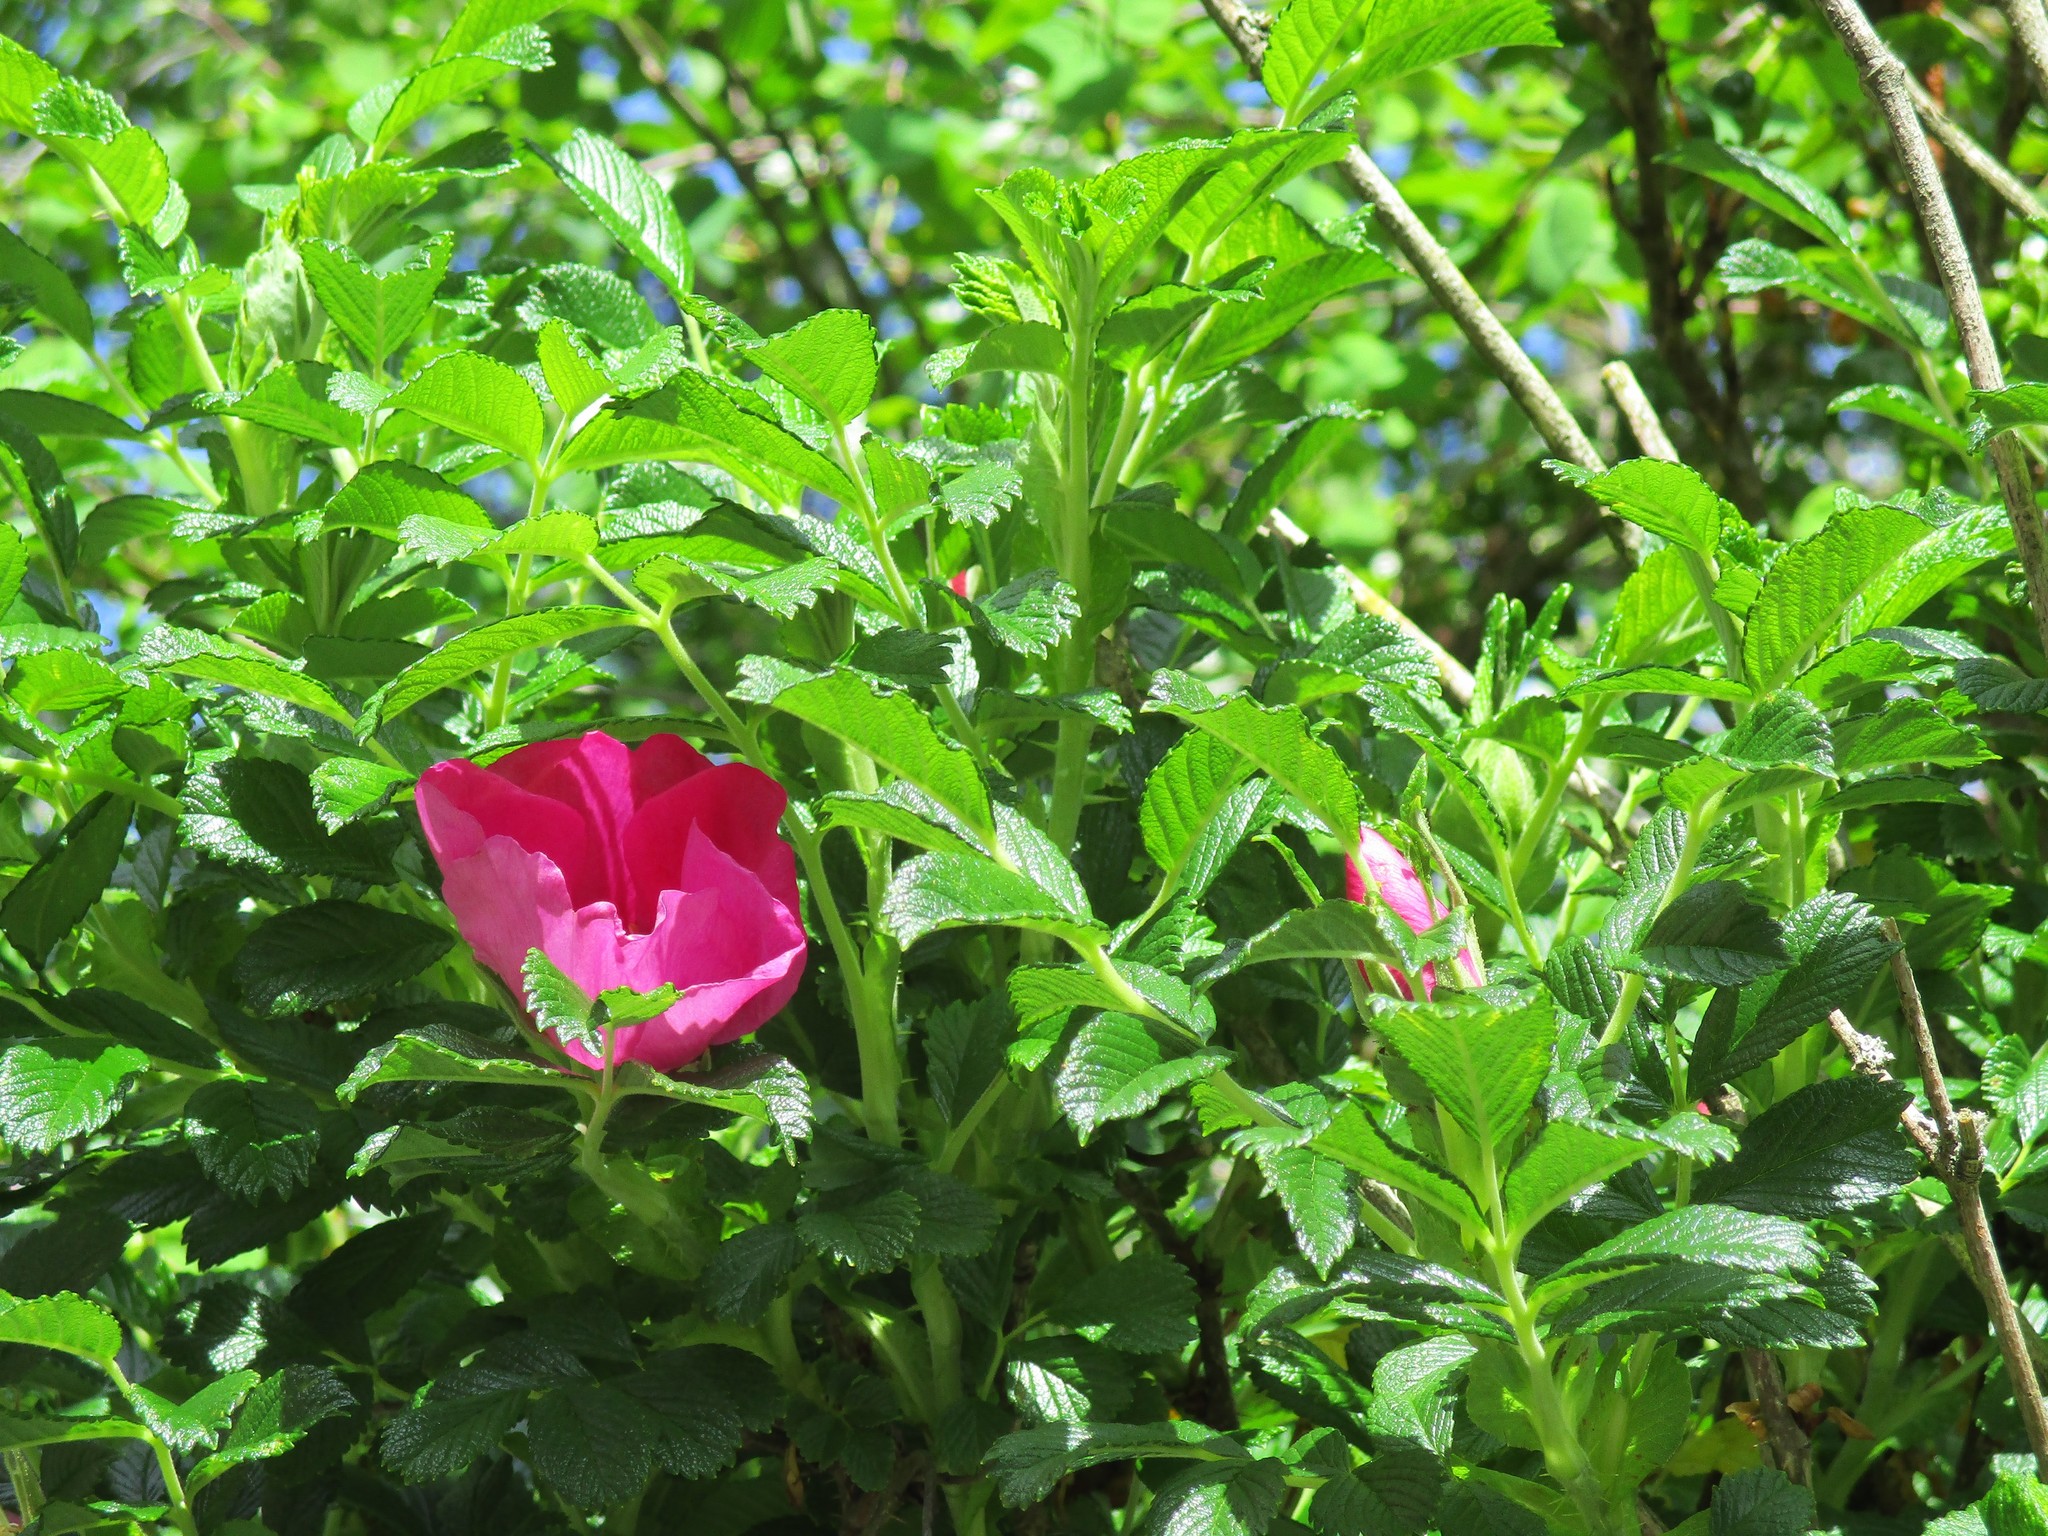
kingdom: Plantae
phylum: Tracheophyta
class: Magnoliopsida
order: Rosales
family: Rosaceae
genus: Rosa
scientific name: Rosa rugosa
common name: Japanese rose
